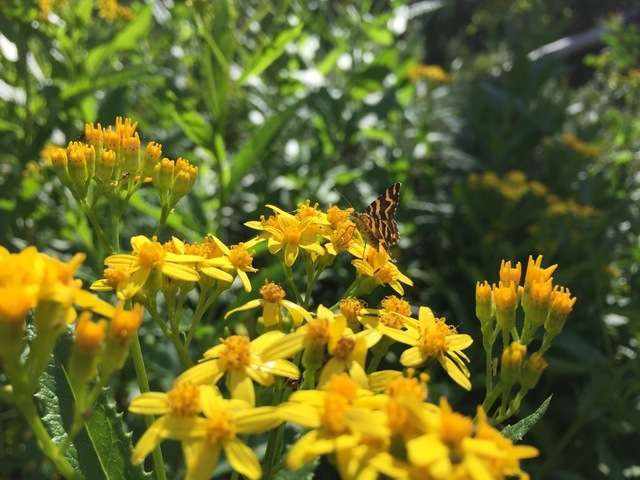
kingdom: Plantae
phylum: Tracheophyta
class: Magnoliopsida
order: Asterales
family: Asteraceae
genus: Senecio
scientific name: Senecio linearifolius
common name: Fireweed groundsel
